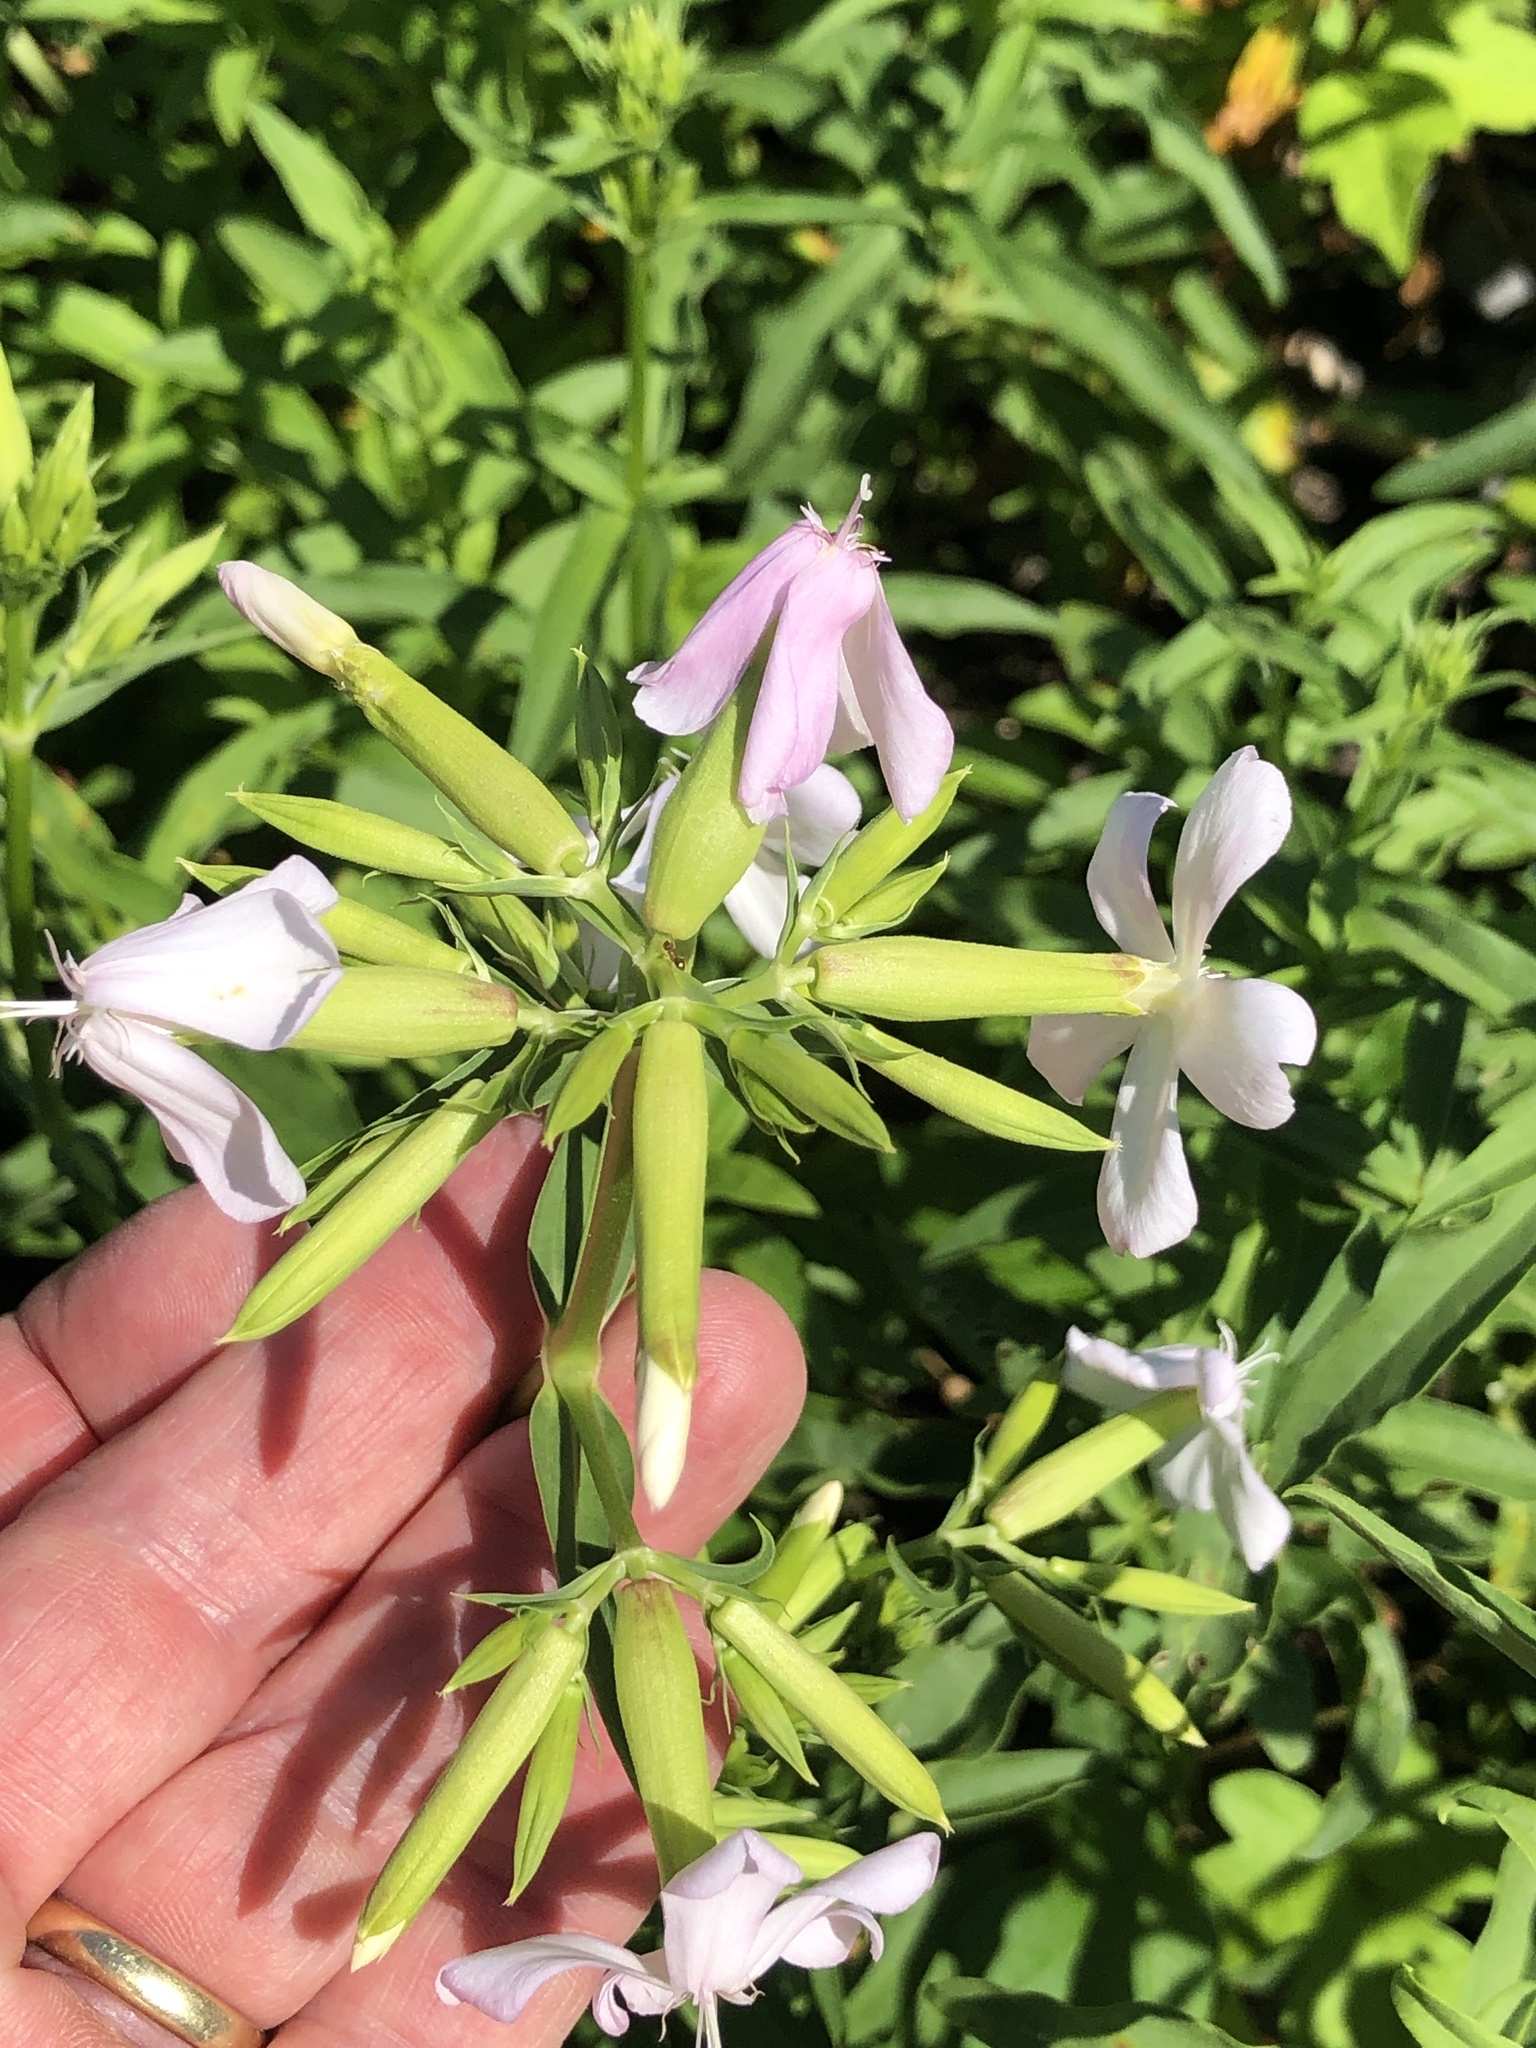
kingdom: Plantae
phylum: Tracheophyta
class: Magnoliopsida
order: Caryophyllales
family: Caryophyllaceae
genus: Saponaria
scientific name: Saponaria officinalis
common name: Soapwort
